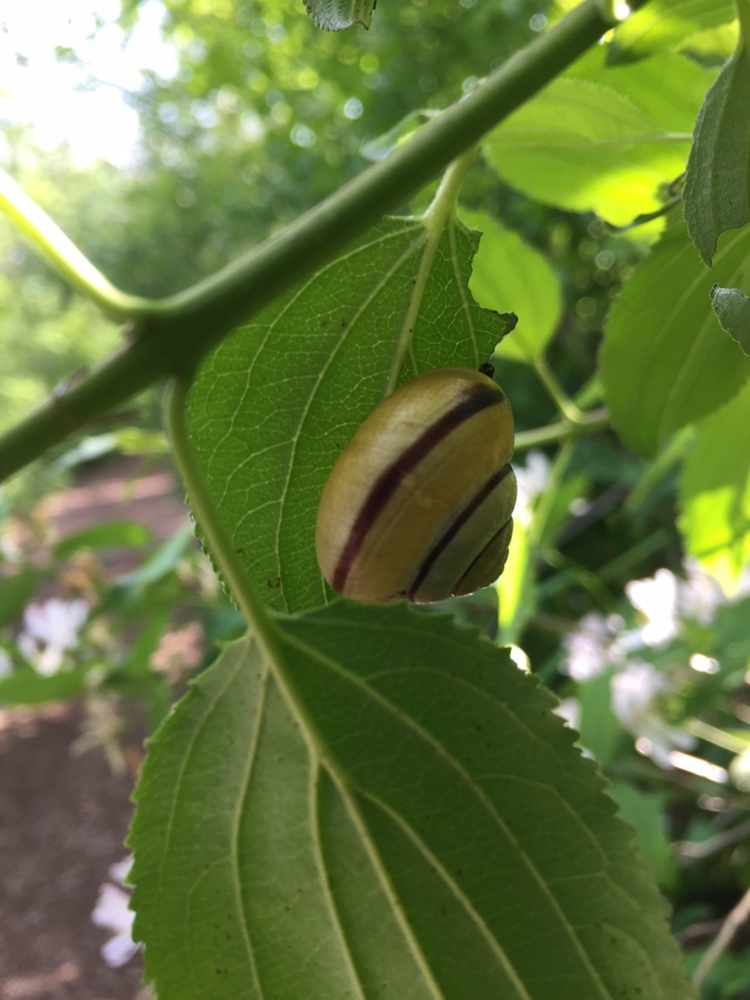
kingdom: Animalia
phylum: Mollusca
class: Gastropoda
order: Stylommatophora
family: Helicidae
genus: Cepaea
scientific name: Cepaea nemoralis
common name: Grovesnail
